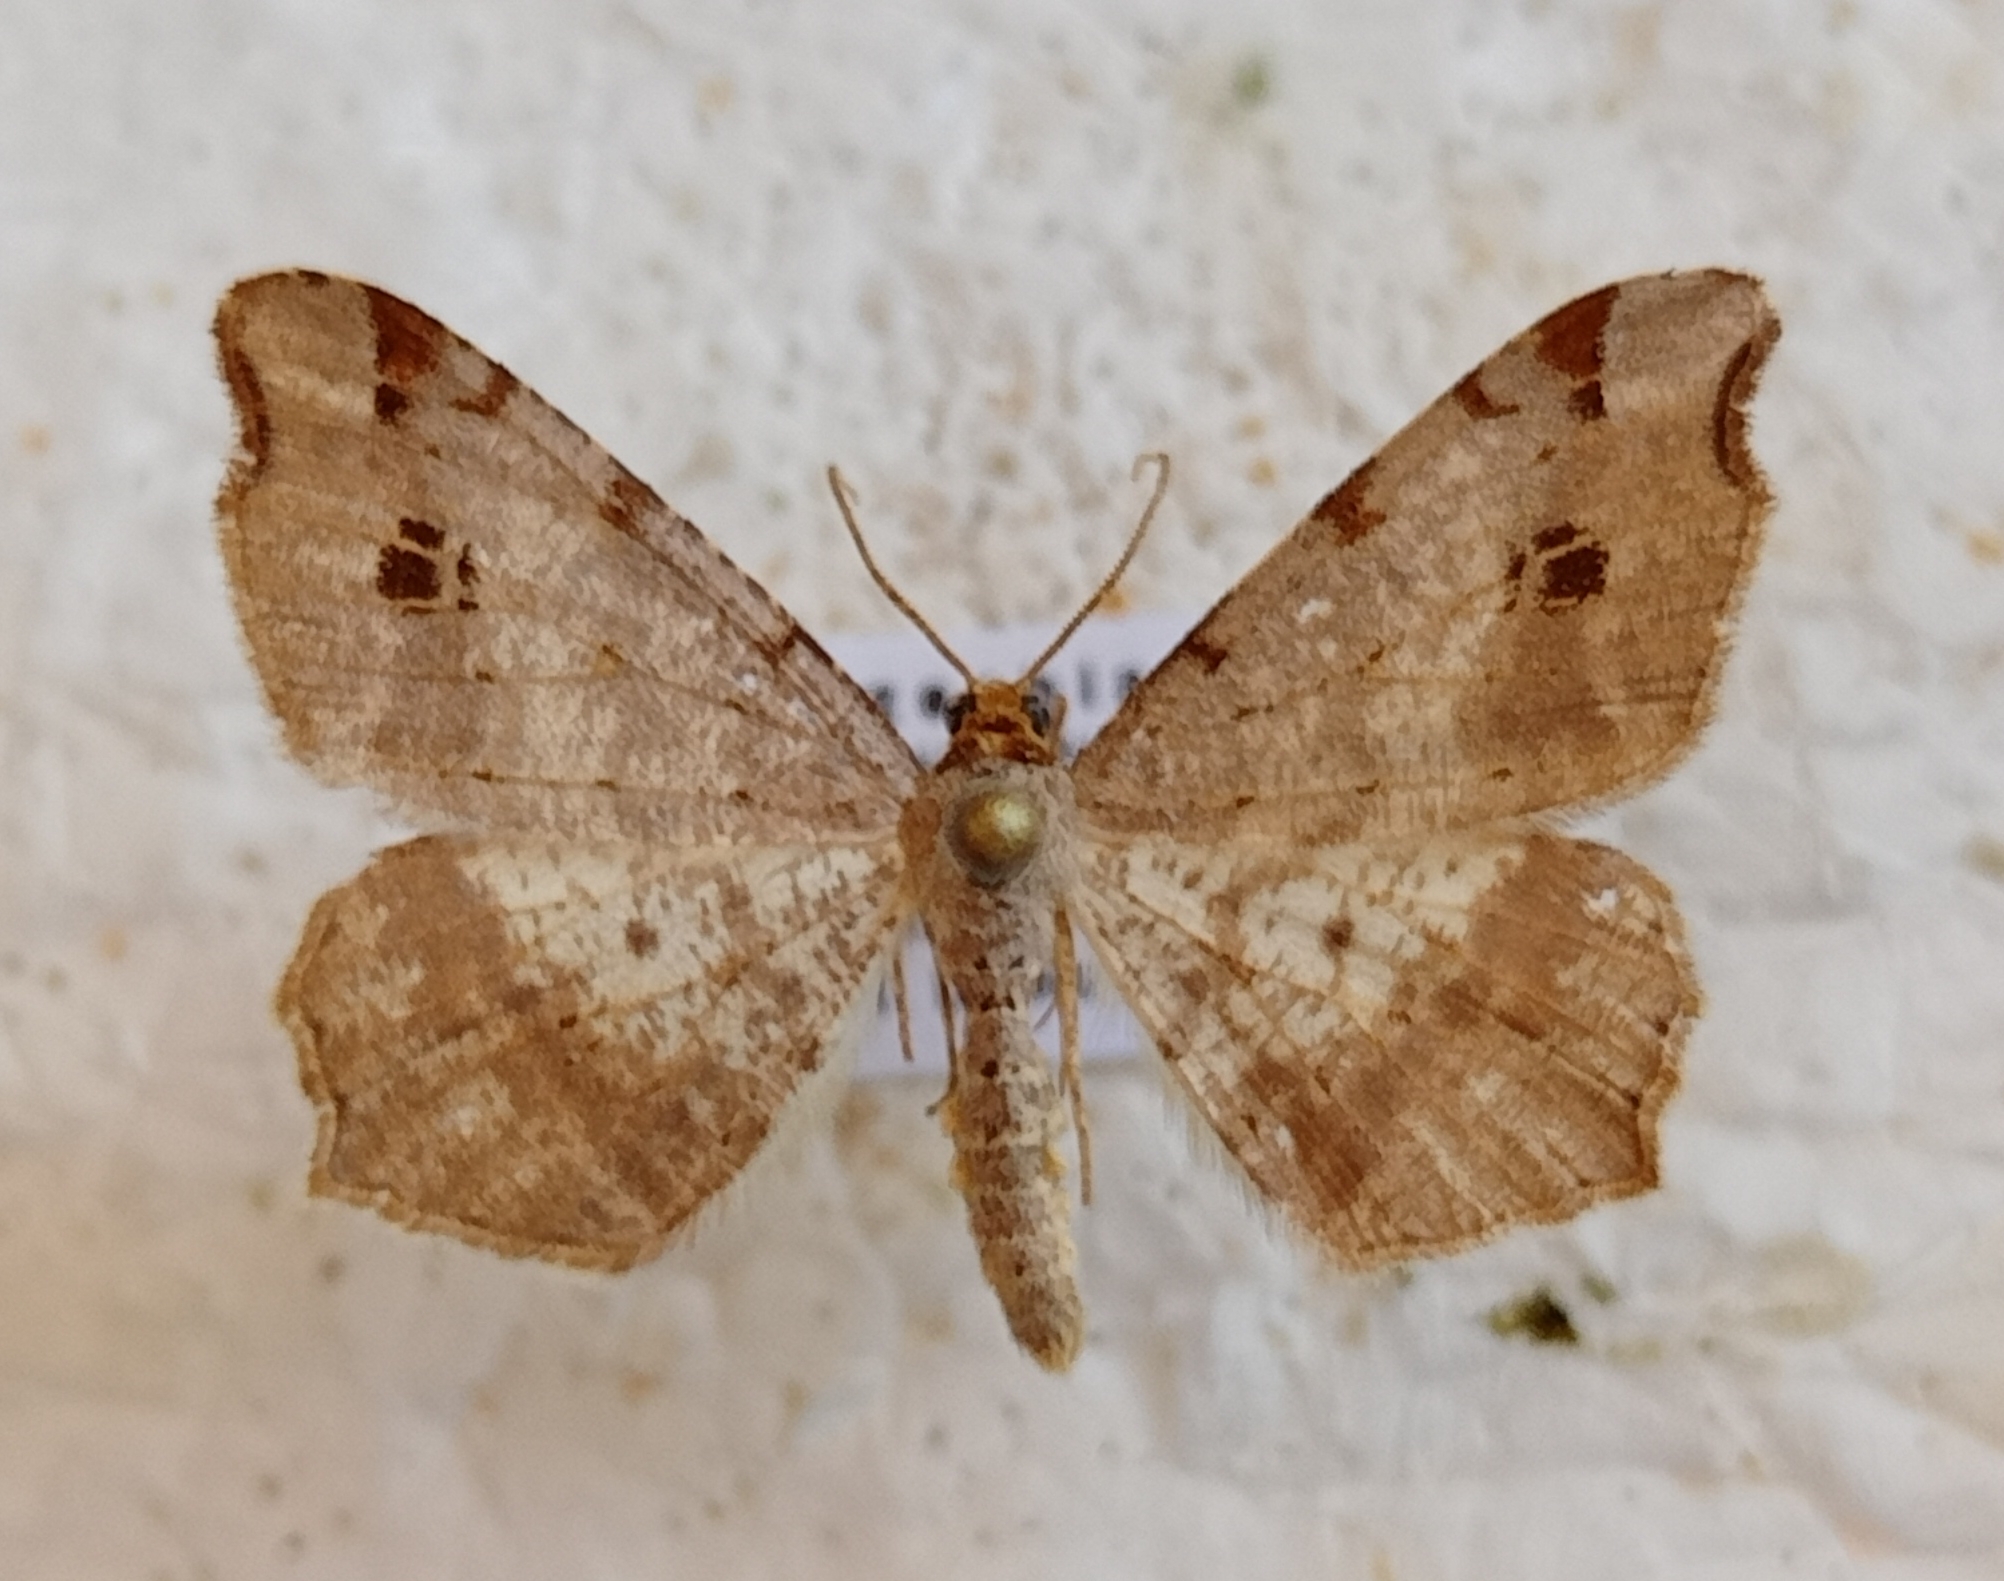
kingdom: Animalia
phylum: Arthropoda
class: Insecta
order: Lepidoptera
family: Geometridae
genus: Macaria
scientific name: Macaria alternata
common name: Sharp-angled peacock
